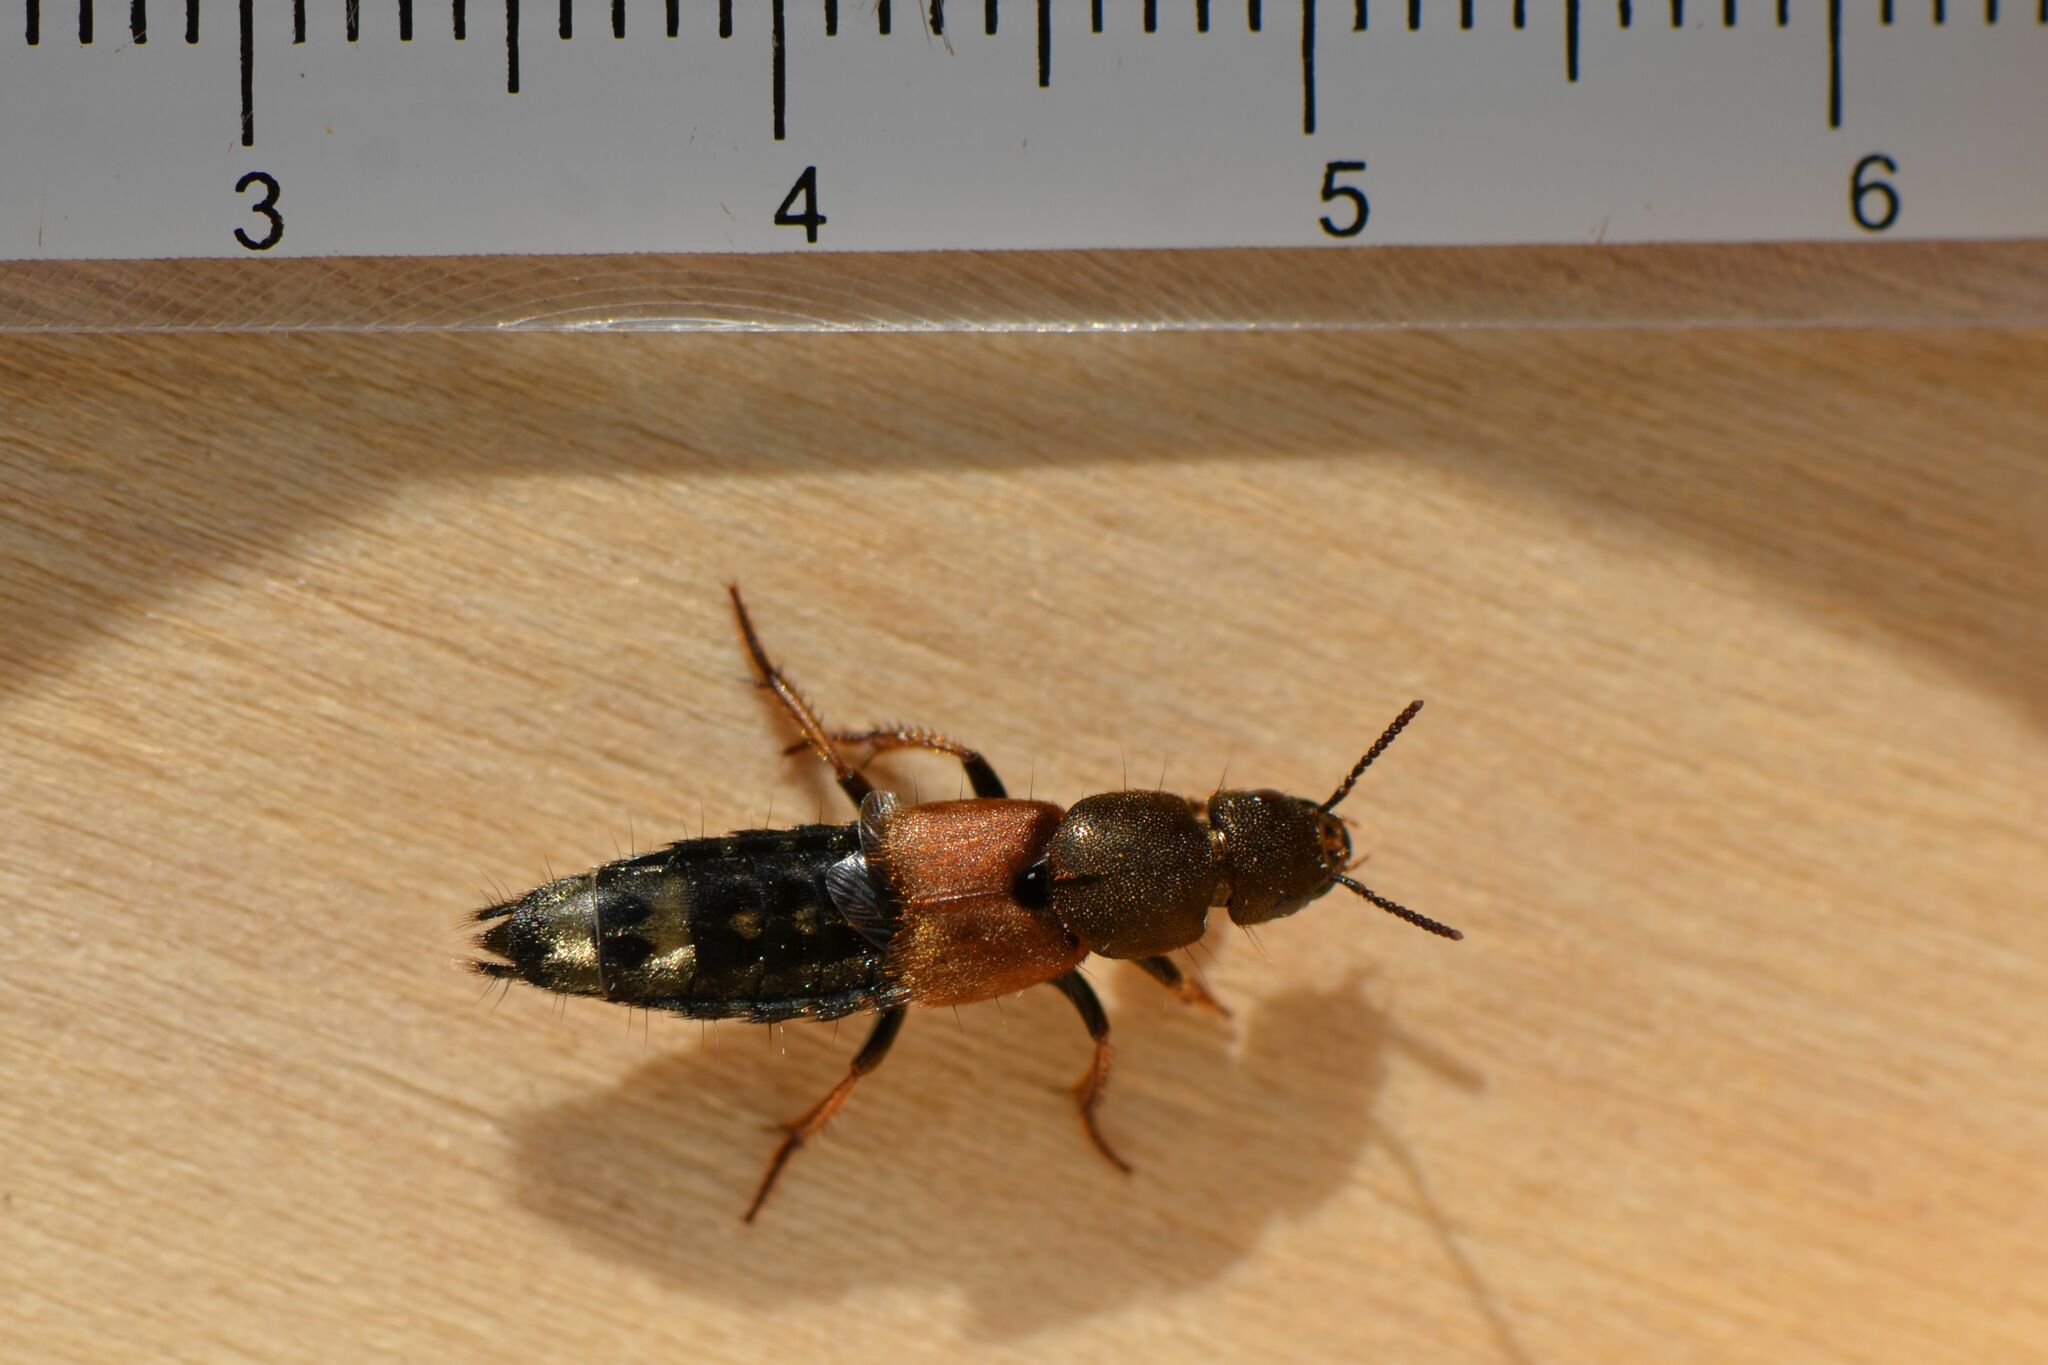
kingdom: Animalia
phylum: Arthropoda
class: Insecta
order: Coleoptera
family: Staphylinidae
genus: Platydracus
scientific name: Platydracus chalcocephalus
